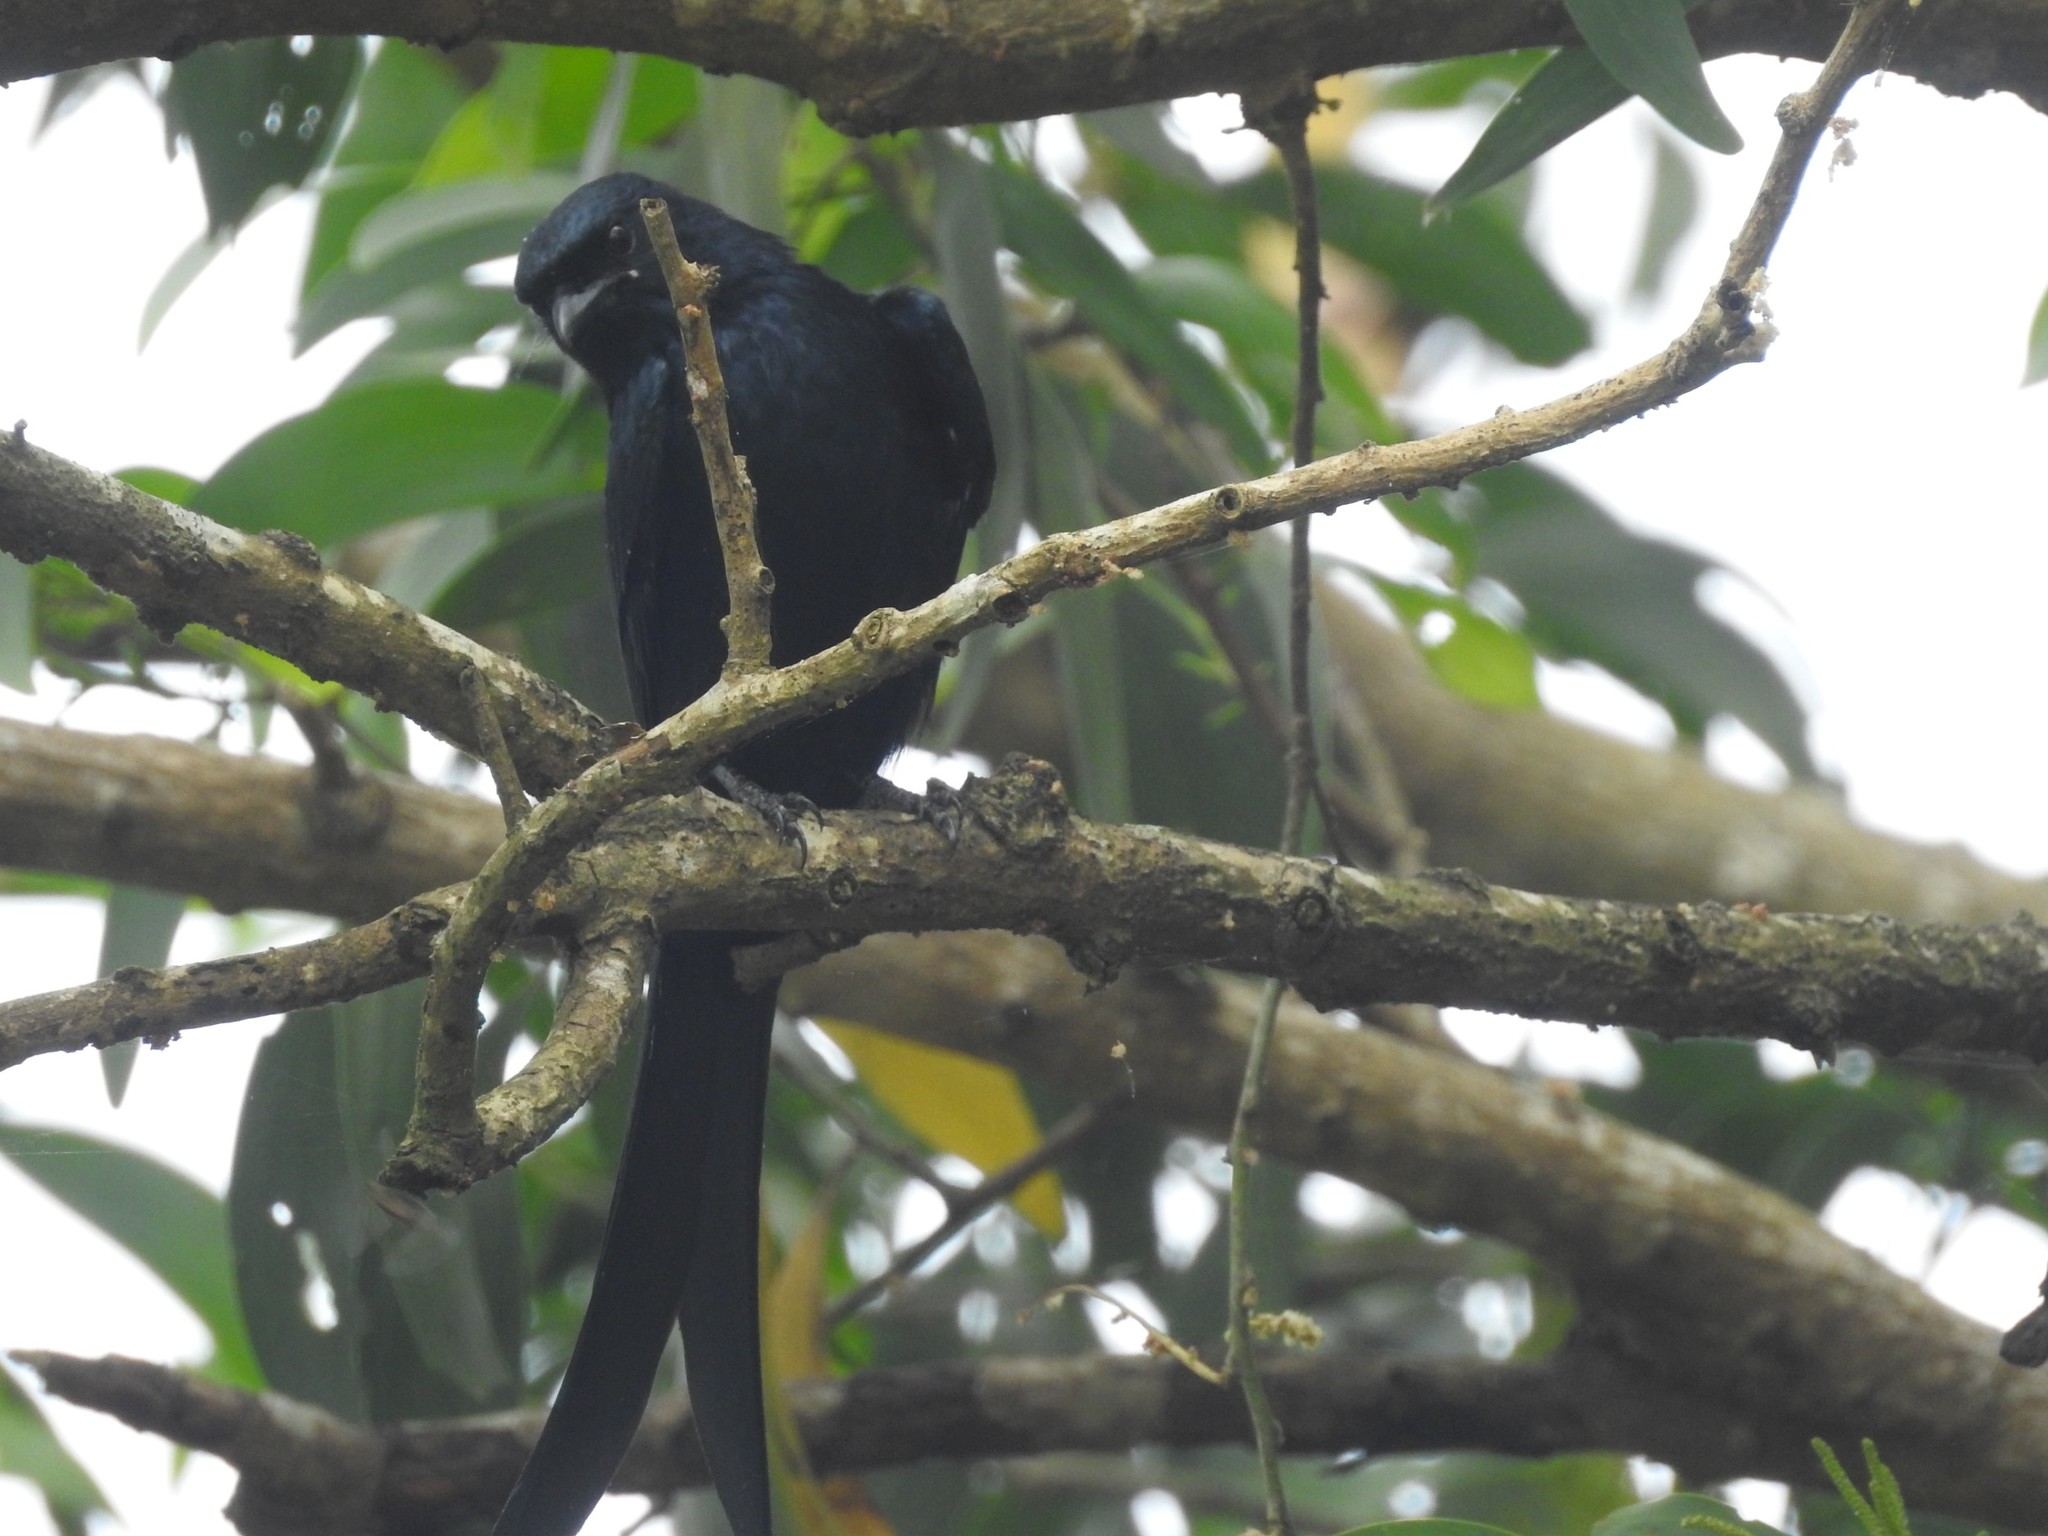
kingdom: Animalia
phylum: Chordata
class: Aves
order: Passeriformes
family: Dicruridae
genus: Dicrurus
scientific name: Dicrurus macrocercus
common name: Black drongo
